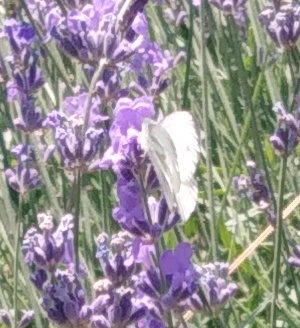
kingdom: Animalia
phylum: Arthropoda
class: Insecta
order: Lepidoptera
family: Pieridae
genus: Pieris
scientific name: Pieris napi
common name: Green-veined white
